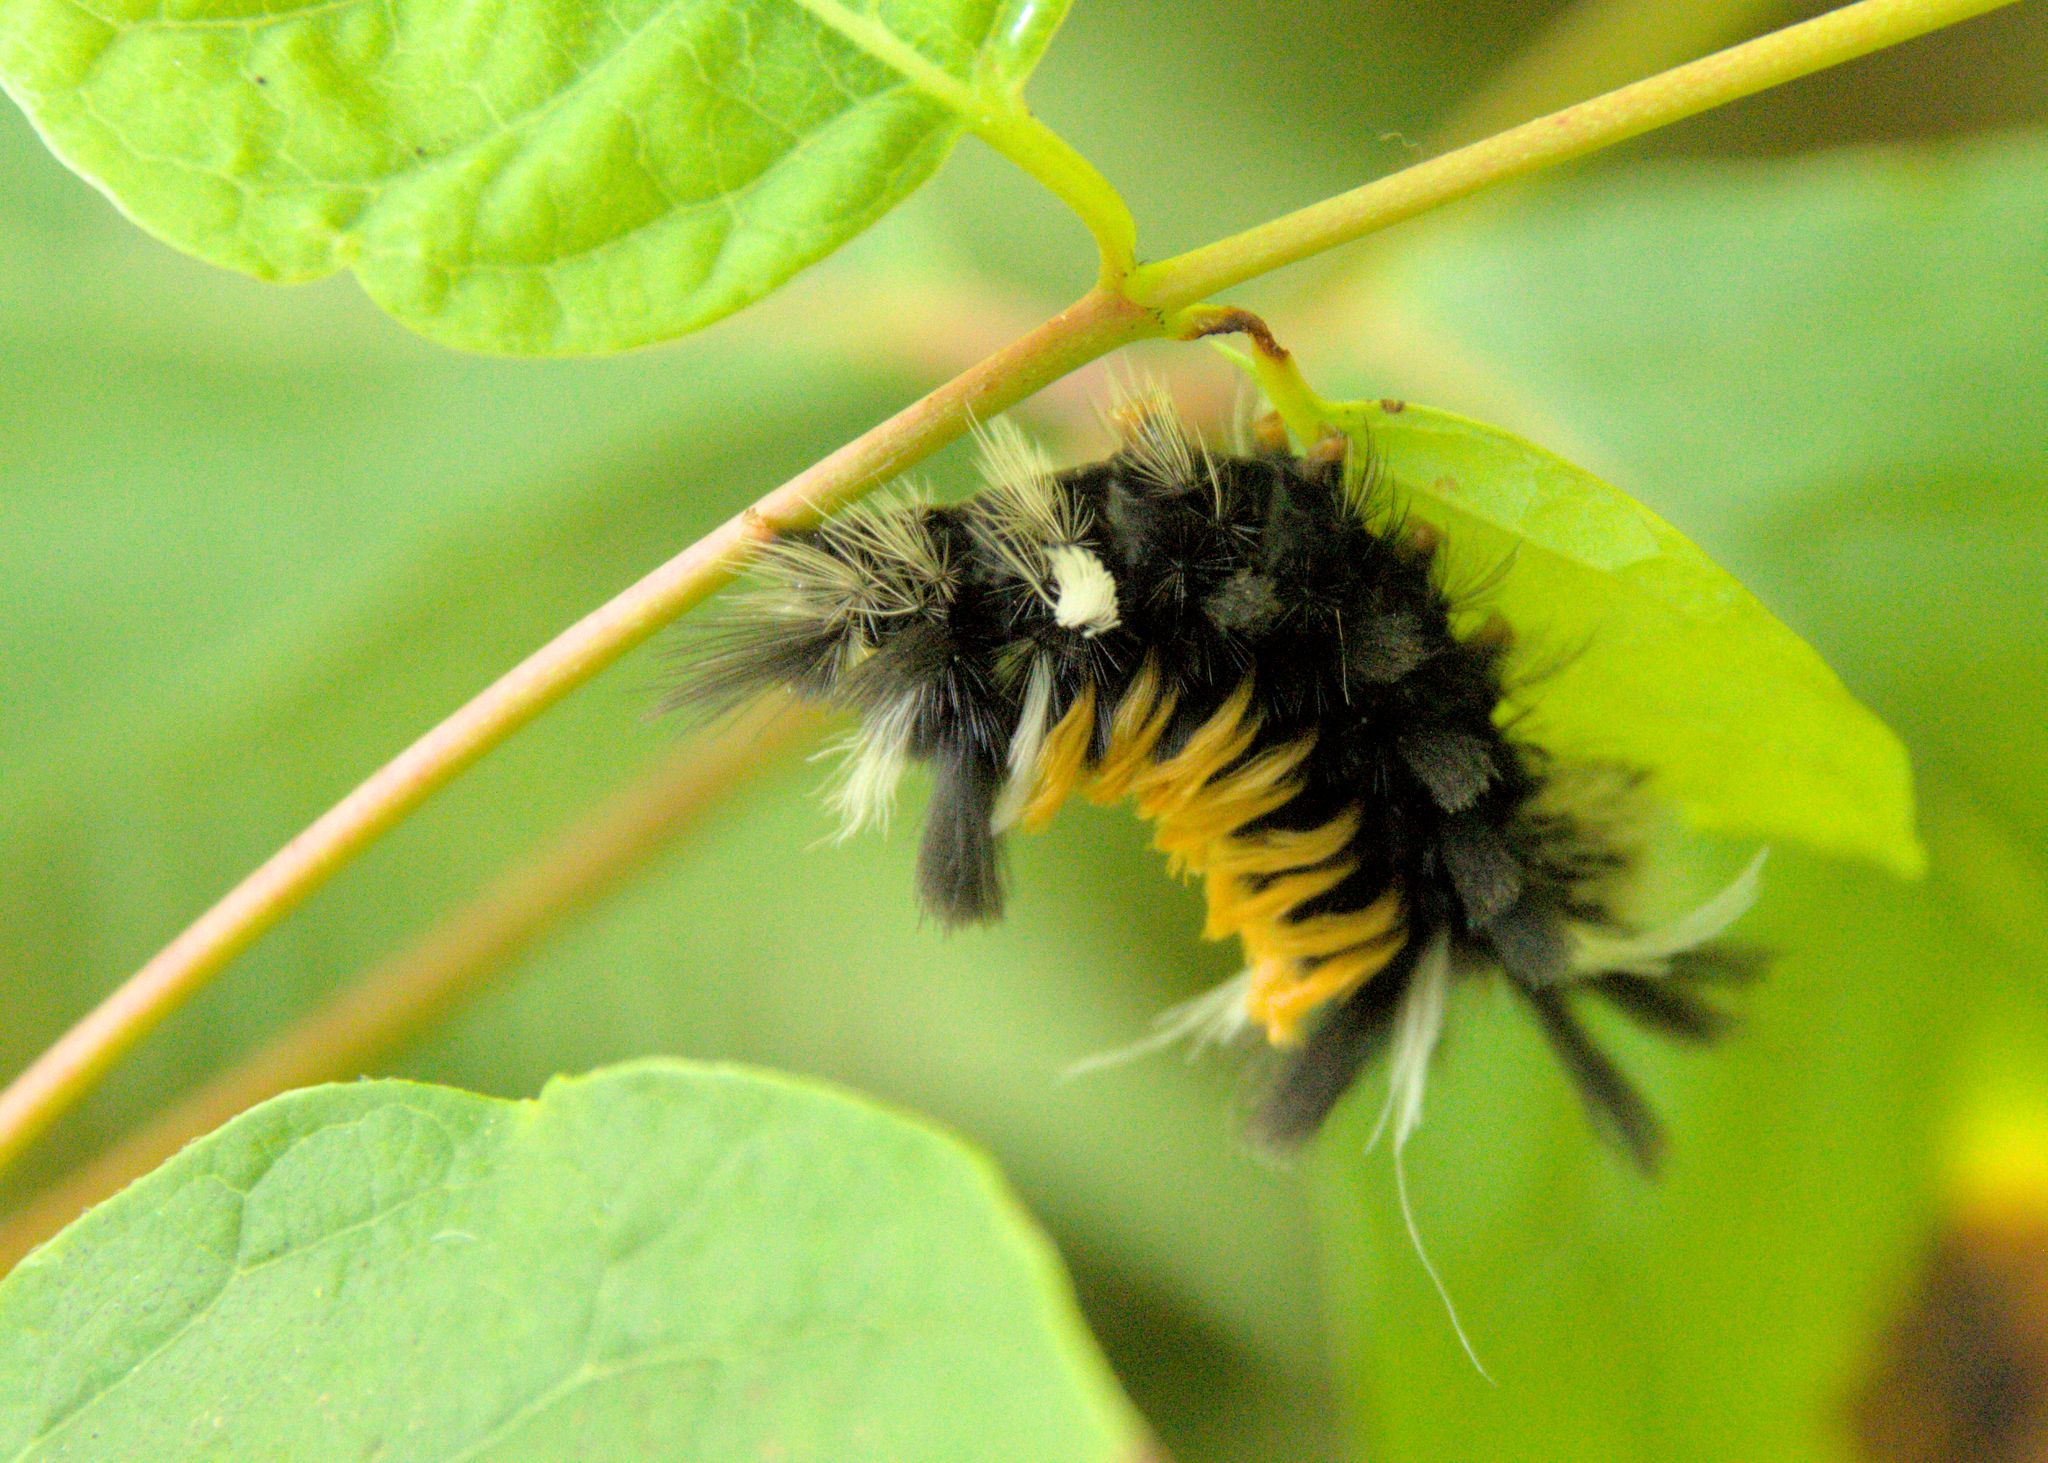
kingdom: Animalia
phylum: Arthropoda
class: Insecta
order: Lepidoptera
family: Erebidae
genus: Euchaetes
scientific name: Euchaetes egle
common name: Milkweed tussock moth
